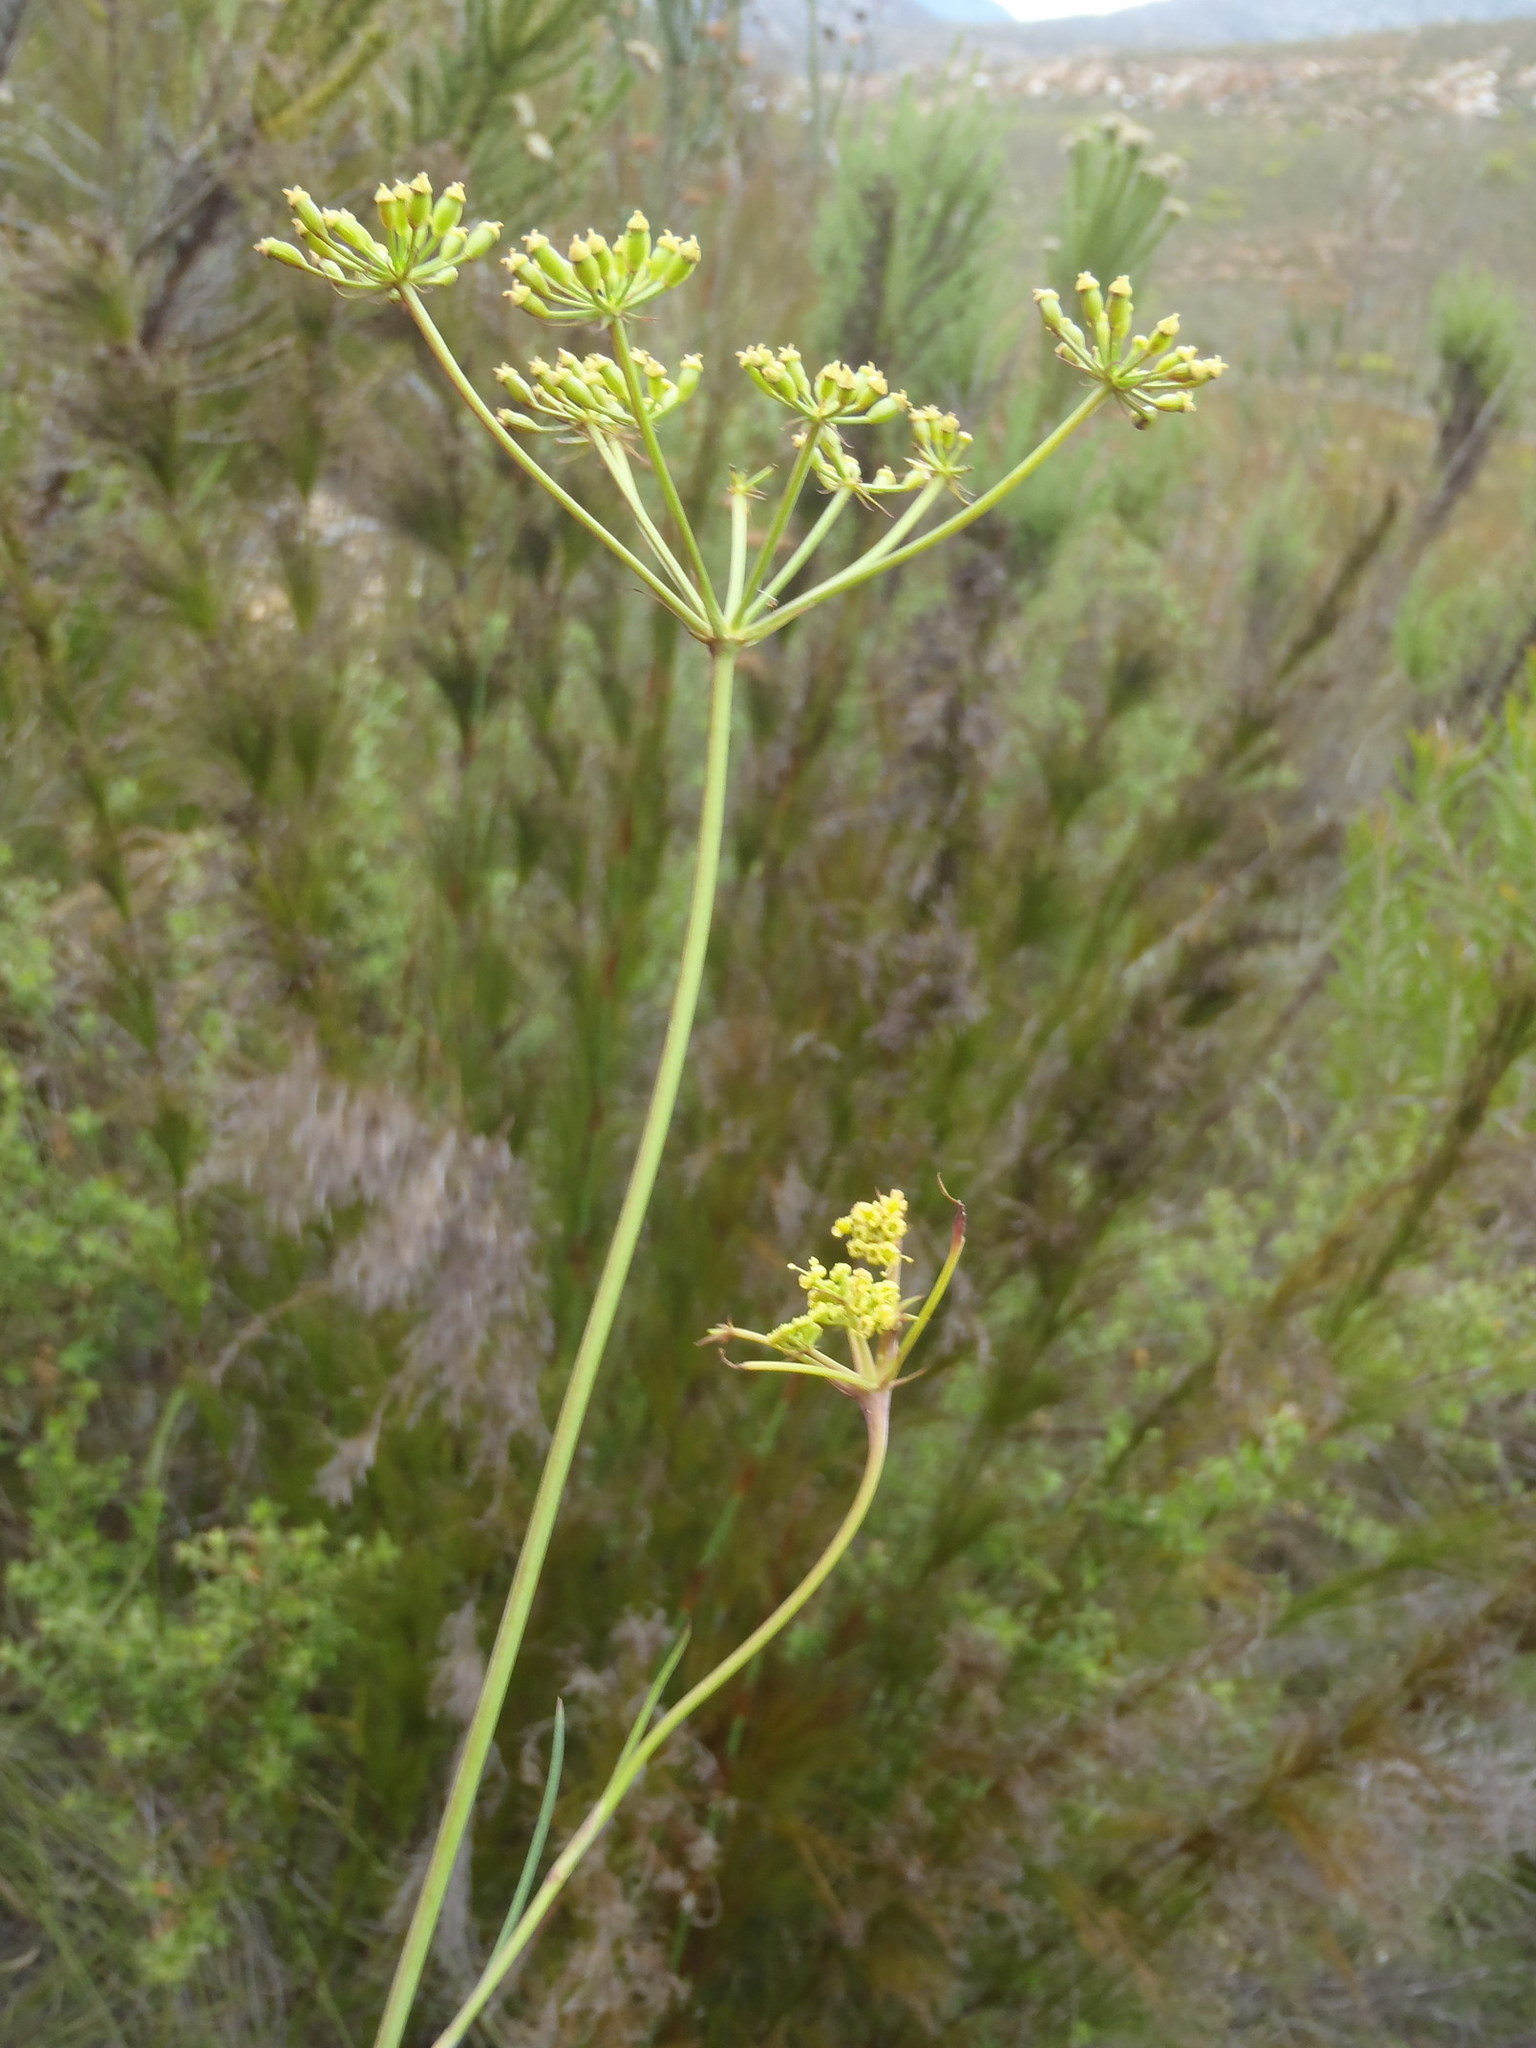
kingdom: Plantae
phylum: Tracheophyta
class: Magnoliopsida
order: Apiales
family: Apiaceae
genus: Notobubon
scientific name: Notobubon ferulaceum
